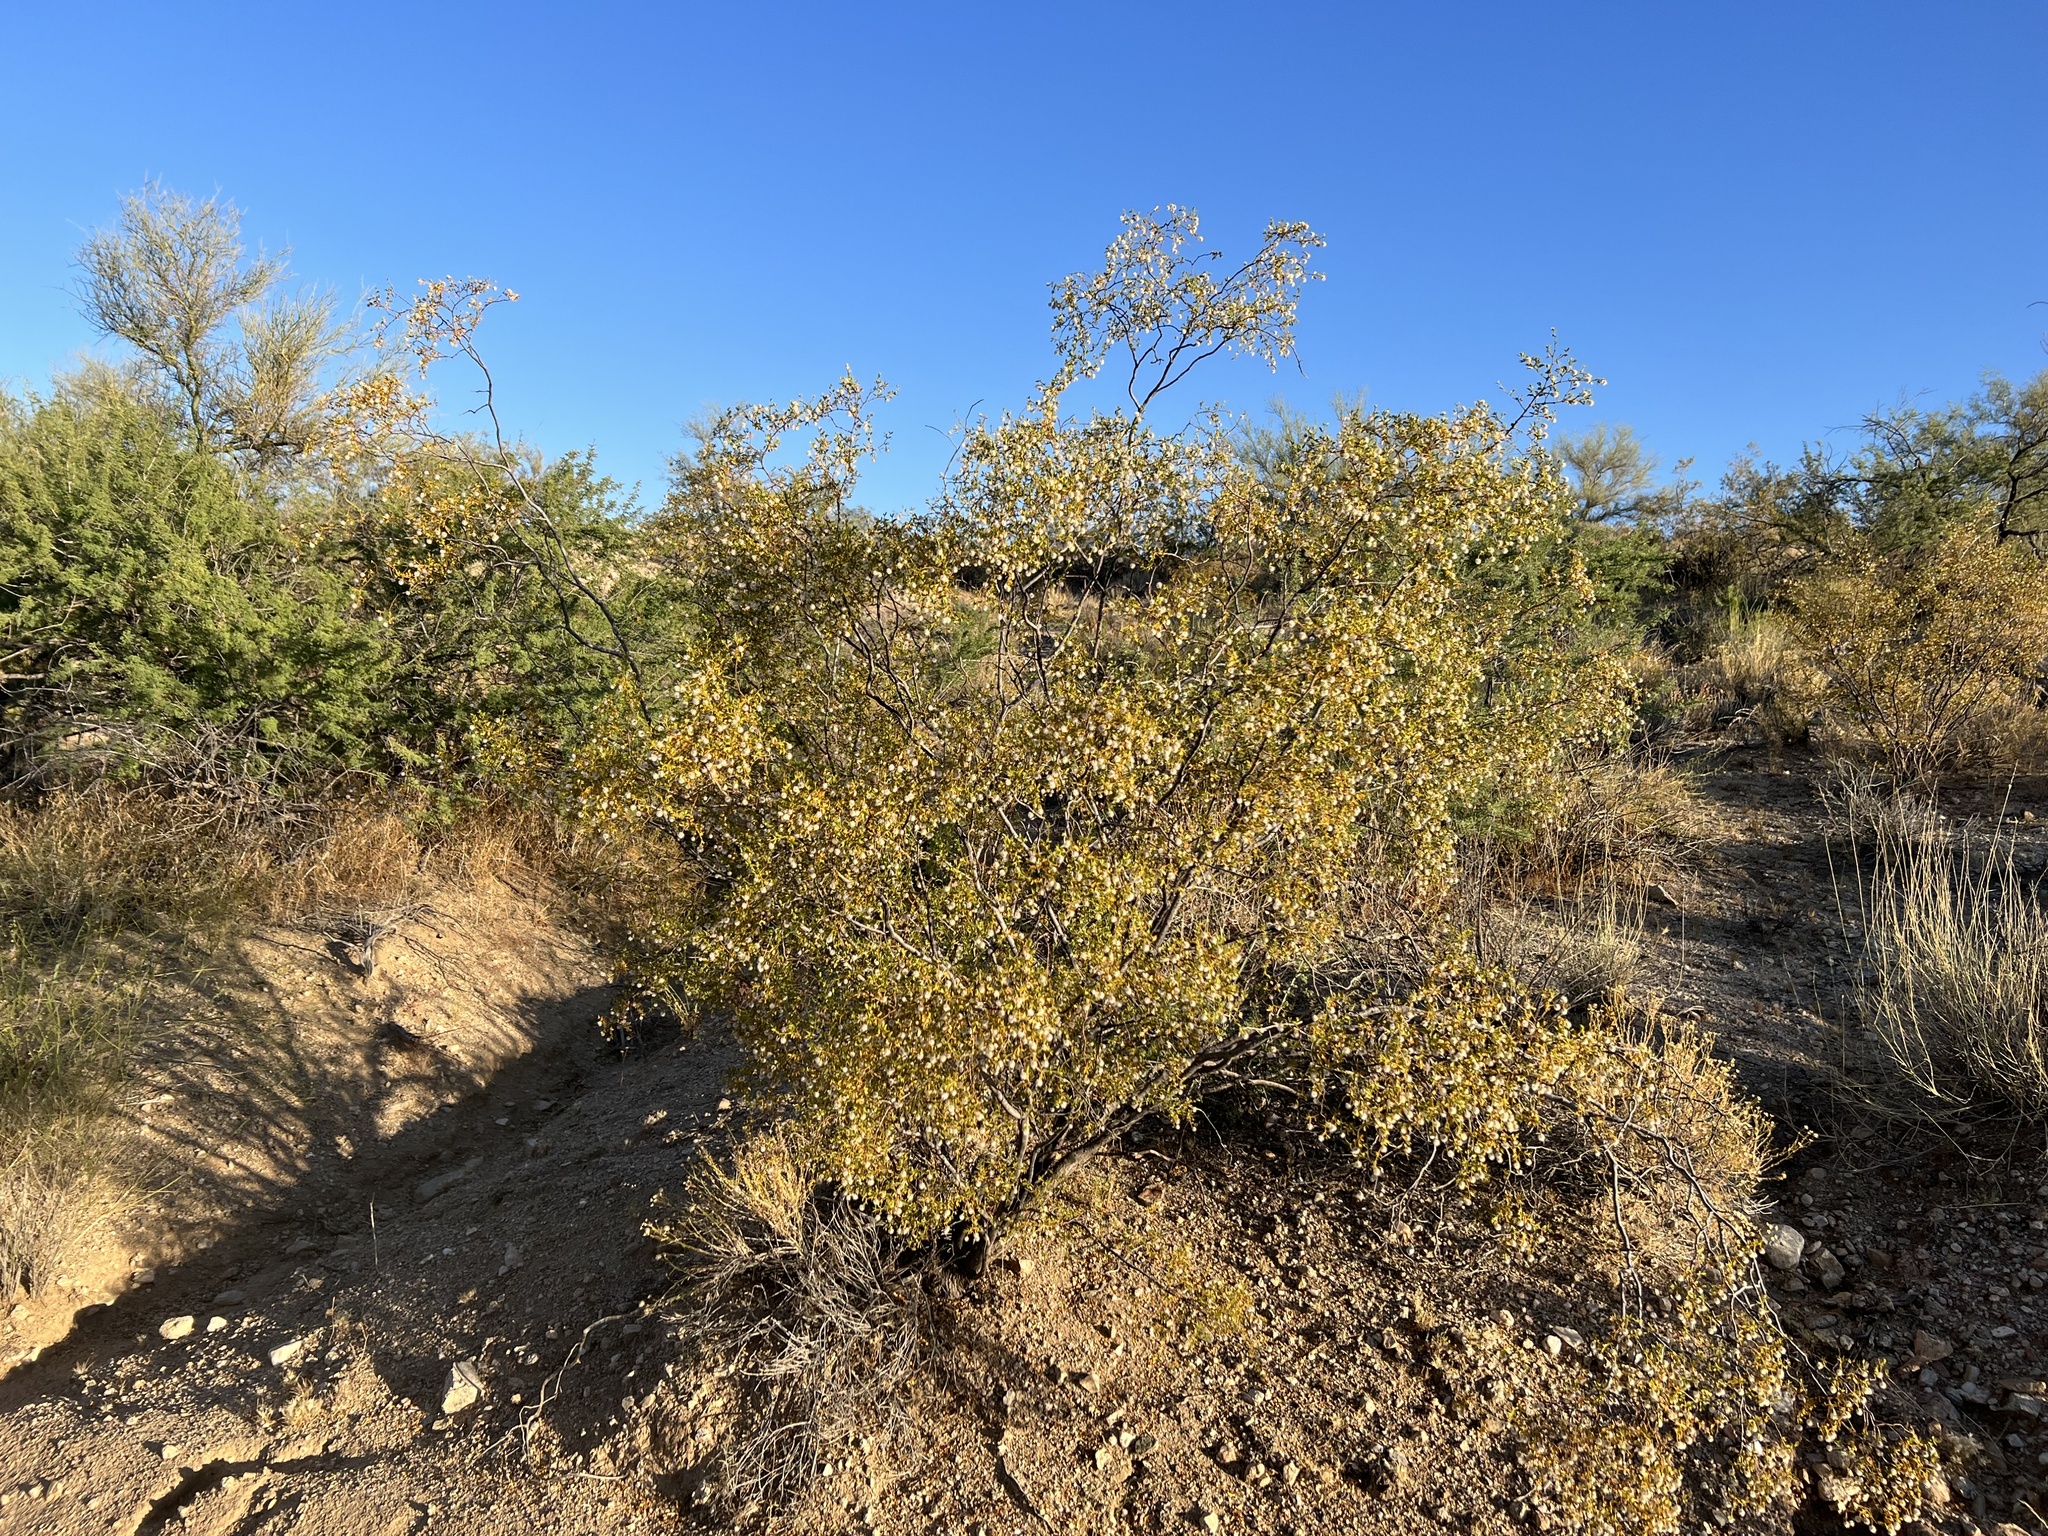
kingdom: Plantae
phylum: Tracheophyta
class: Magnoliopsida
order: Zygophyllales
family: Zygophyllaceae
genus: Larrea
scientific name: Larrea tridentata
